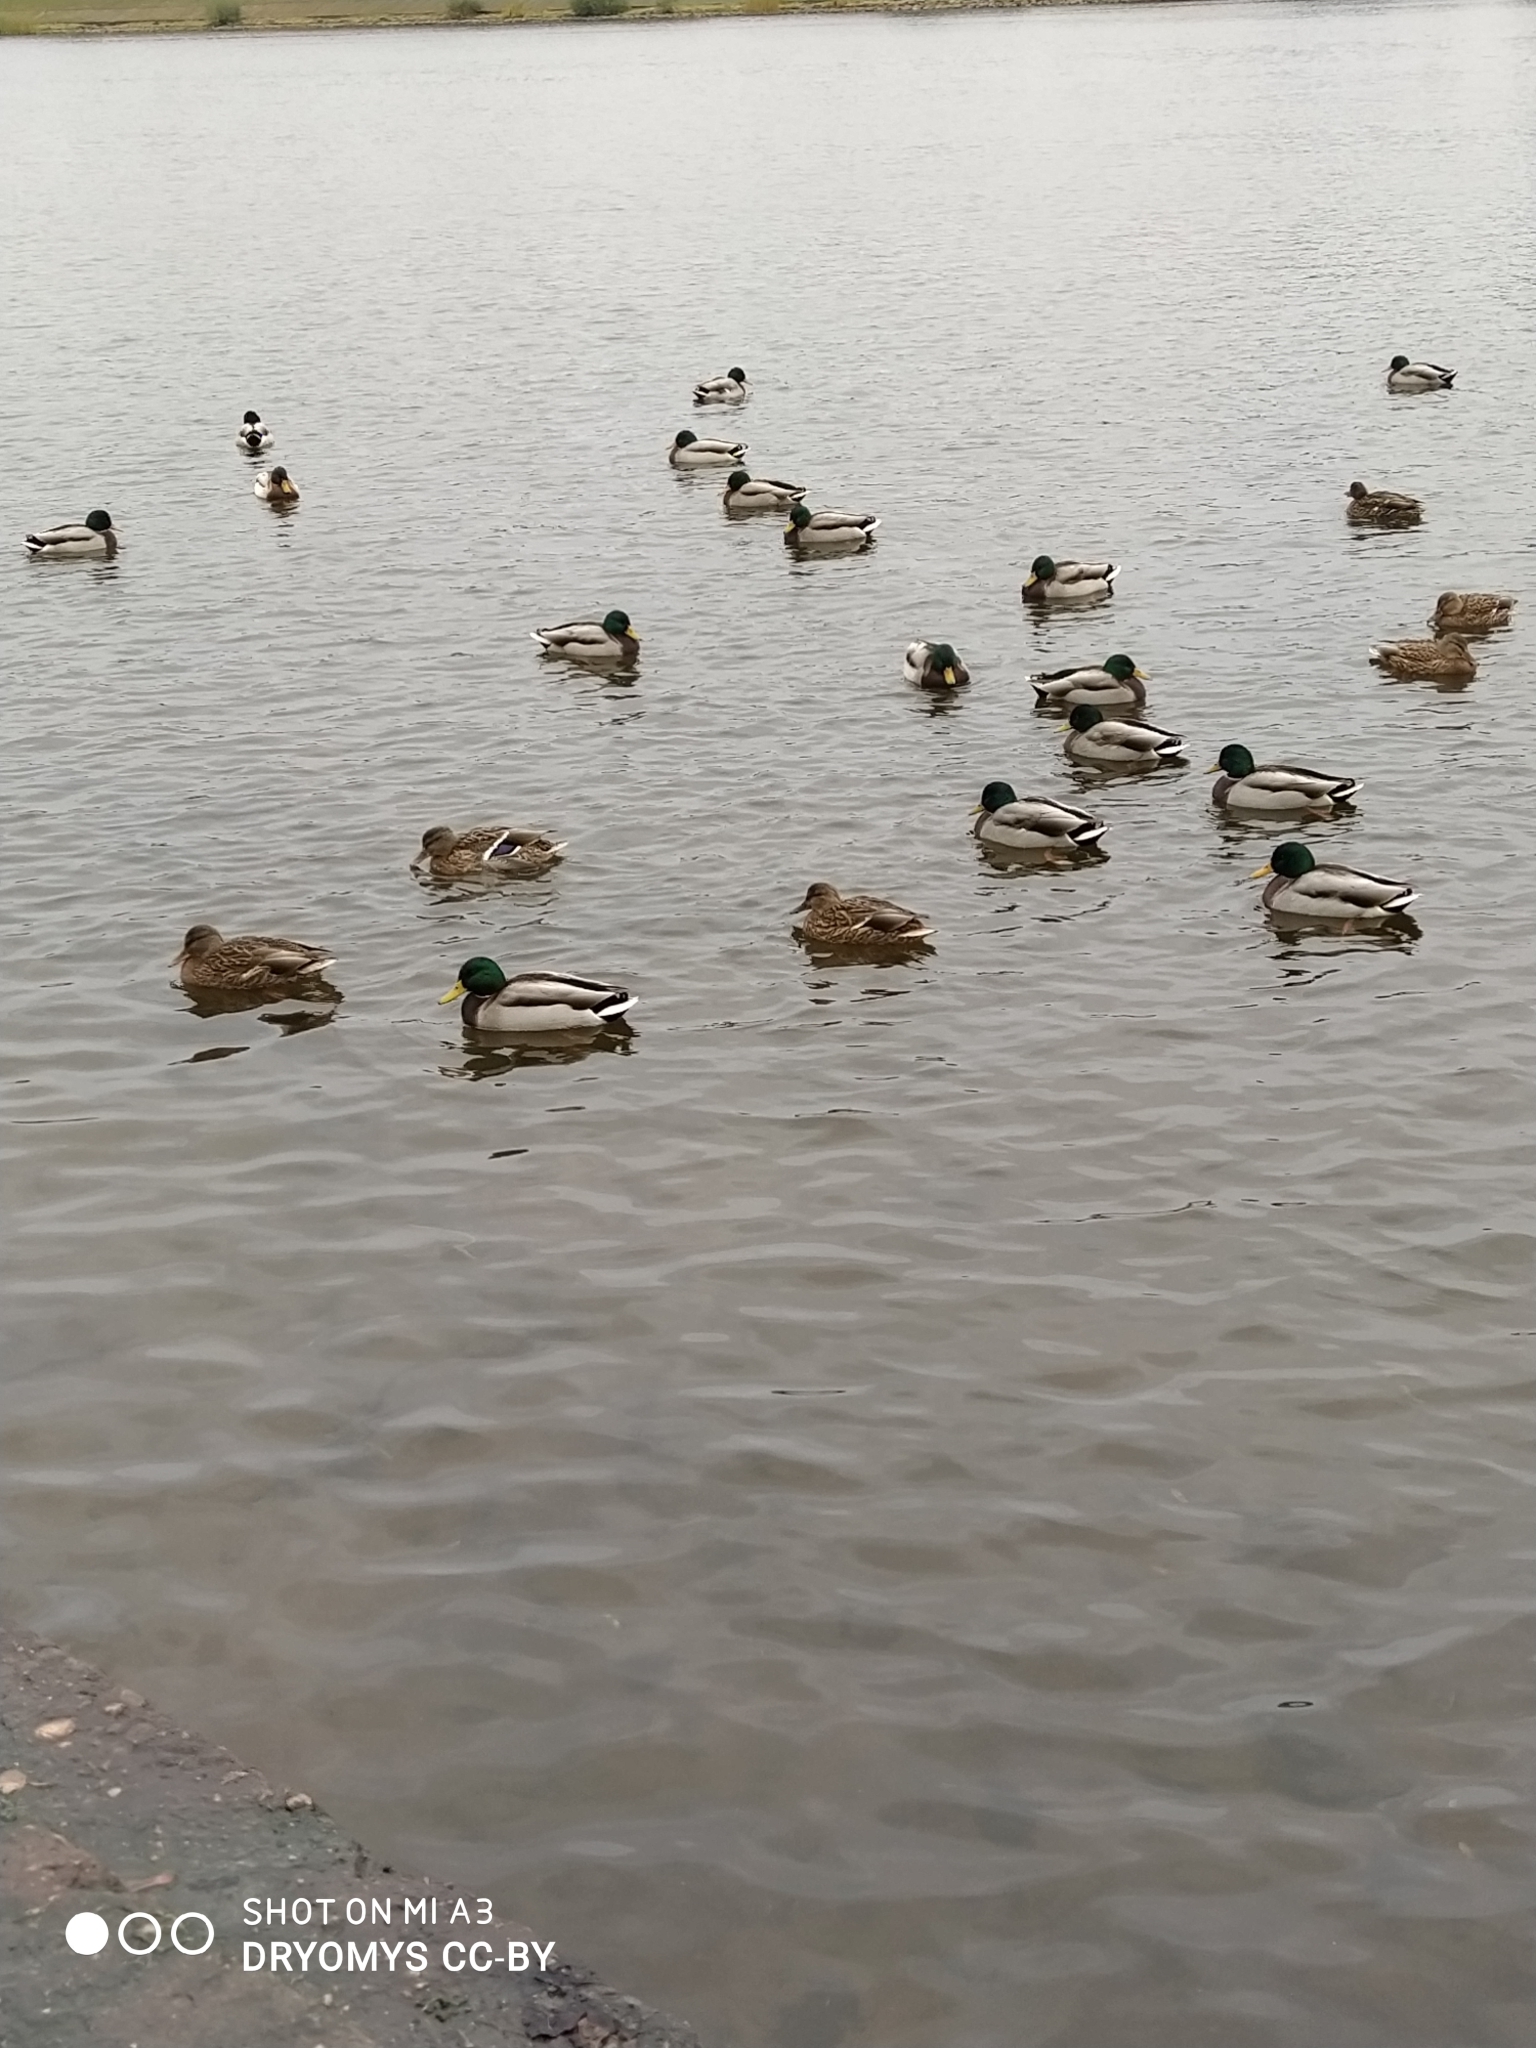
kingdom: Animalia
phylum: Chordata
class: Aves
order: Anseriformes
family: Anatidae
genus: Anas
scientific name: Anas platyrhynchos
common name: Mallard
